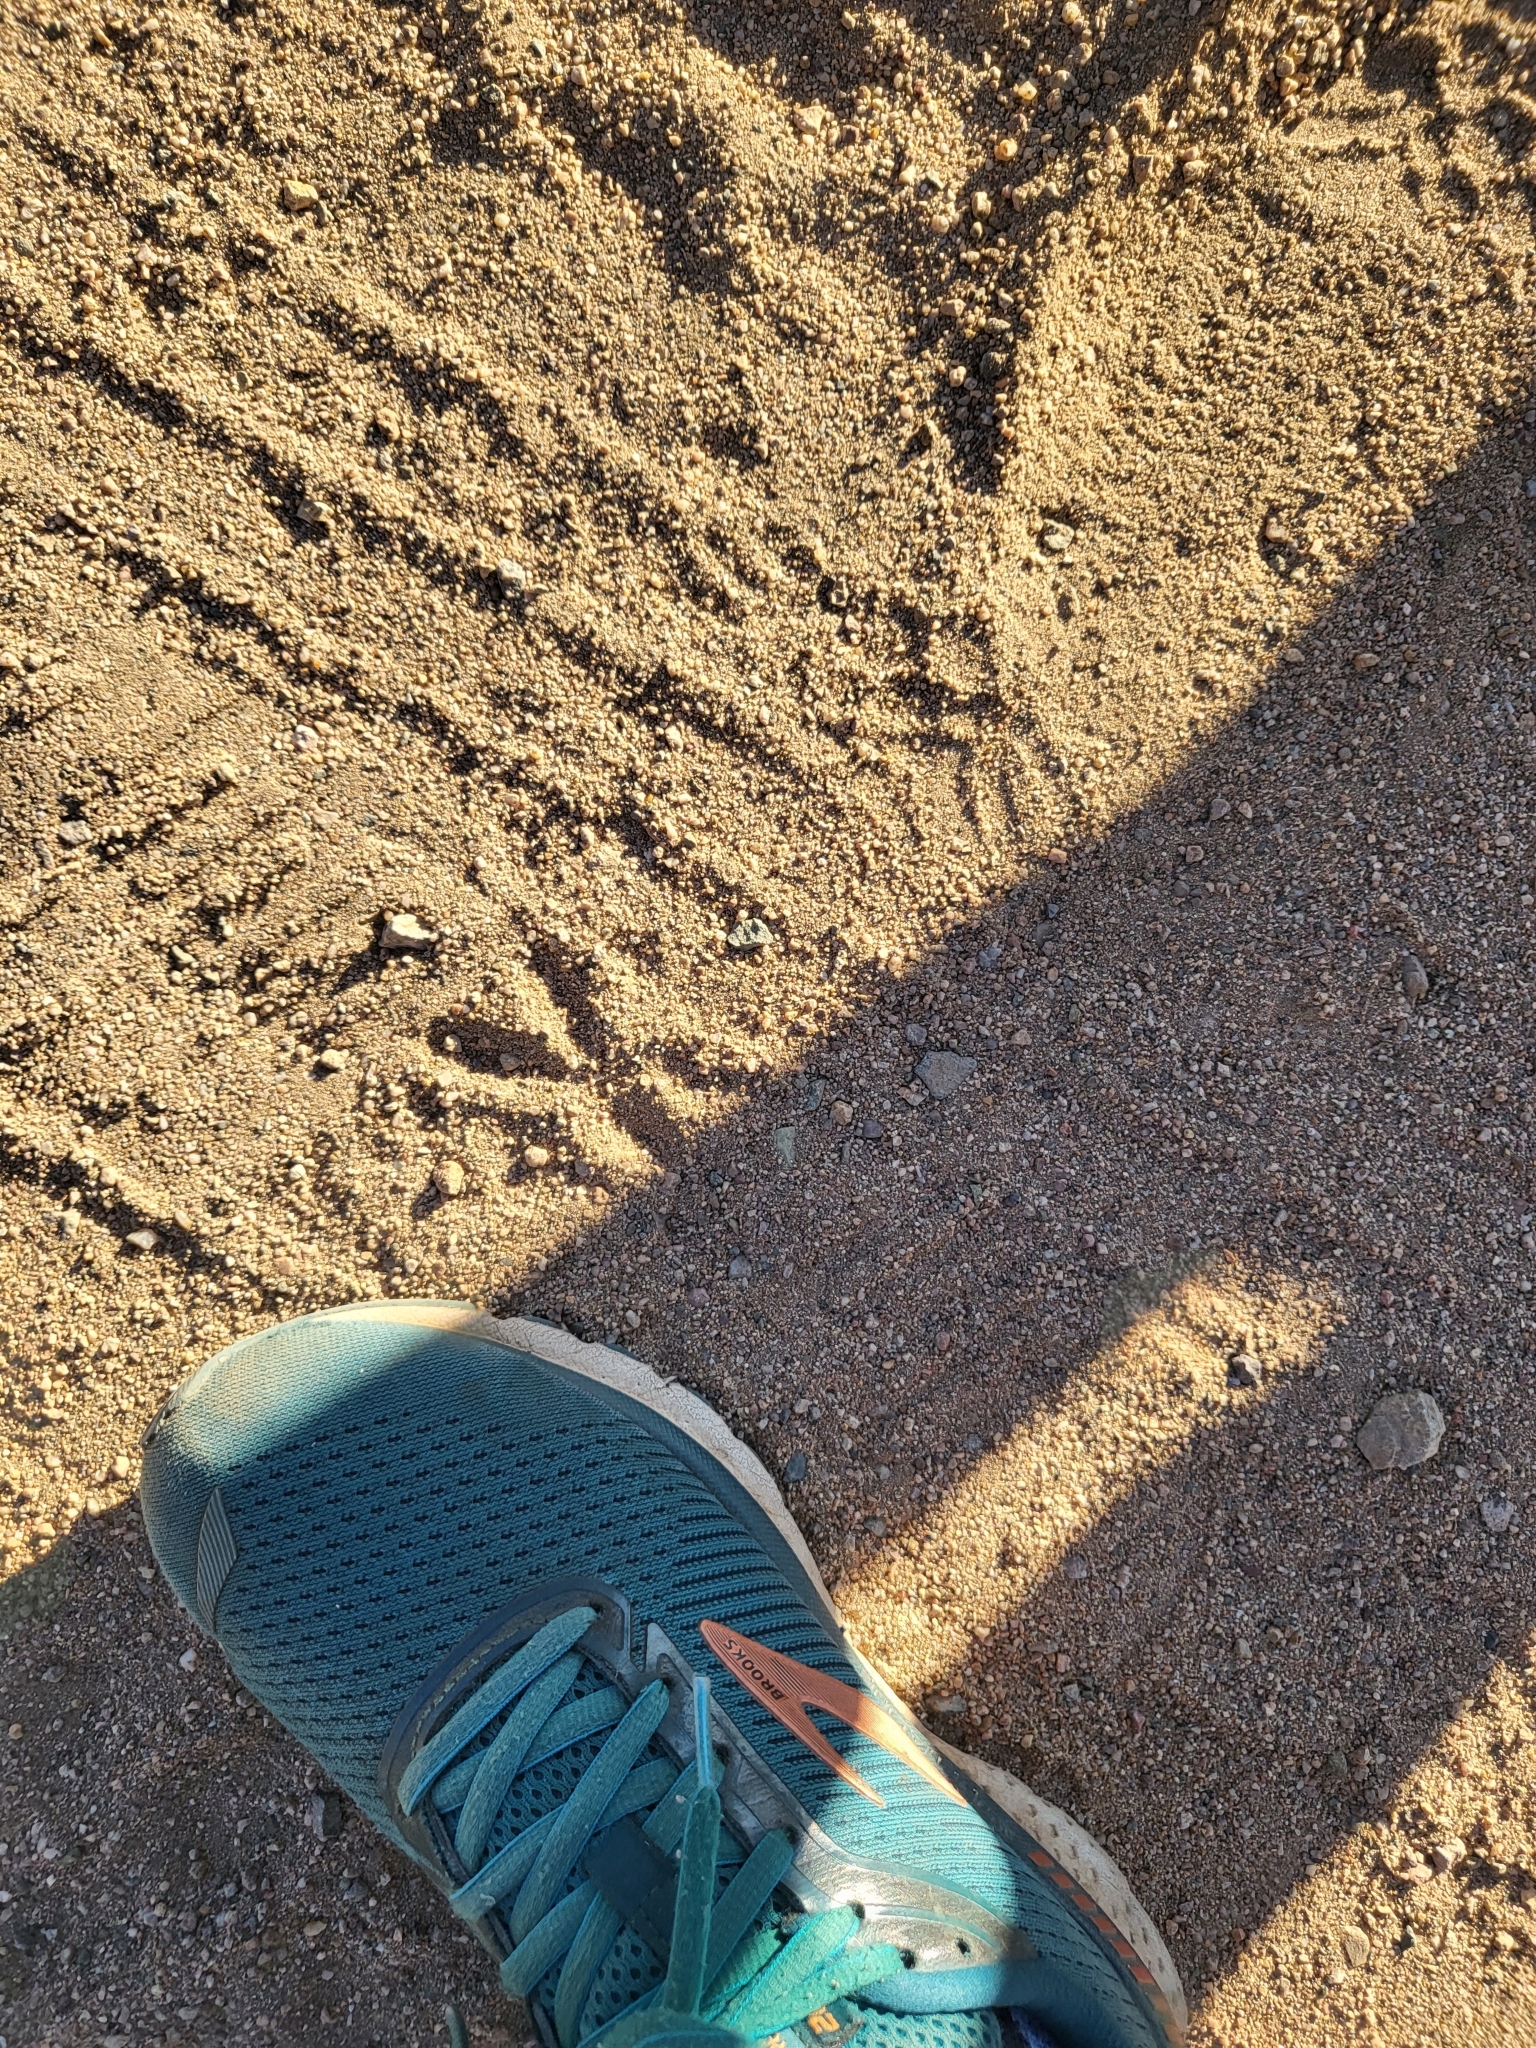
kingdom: Animalia
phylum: Chordata
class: Aves
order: Cuculiformes
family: Cuculidae
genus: Geococcyx
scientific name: Geococcyx californianus
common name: Greater roadrunner
